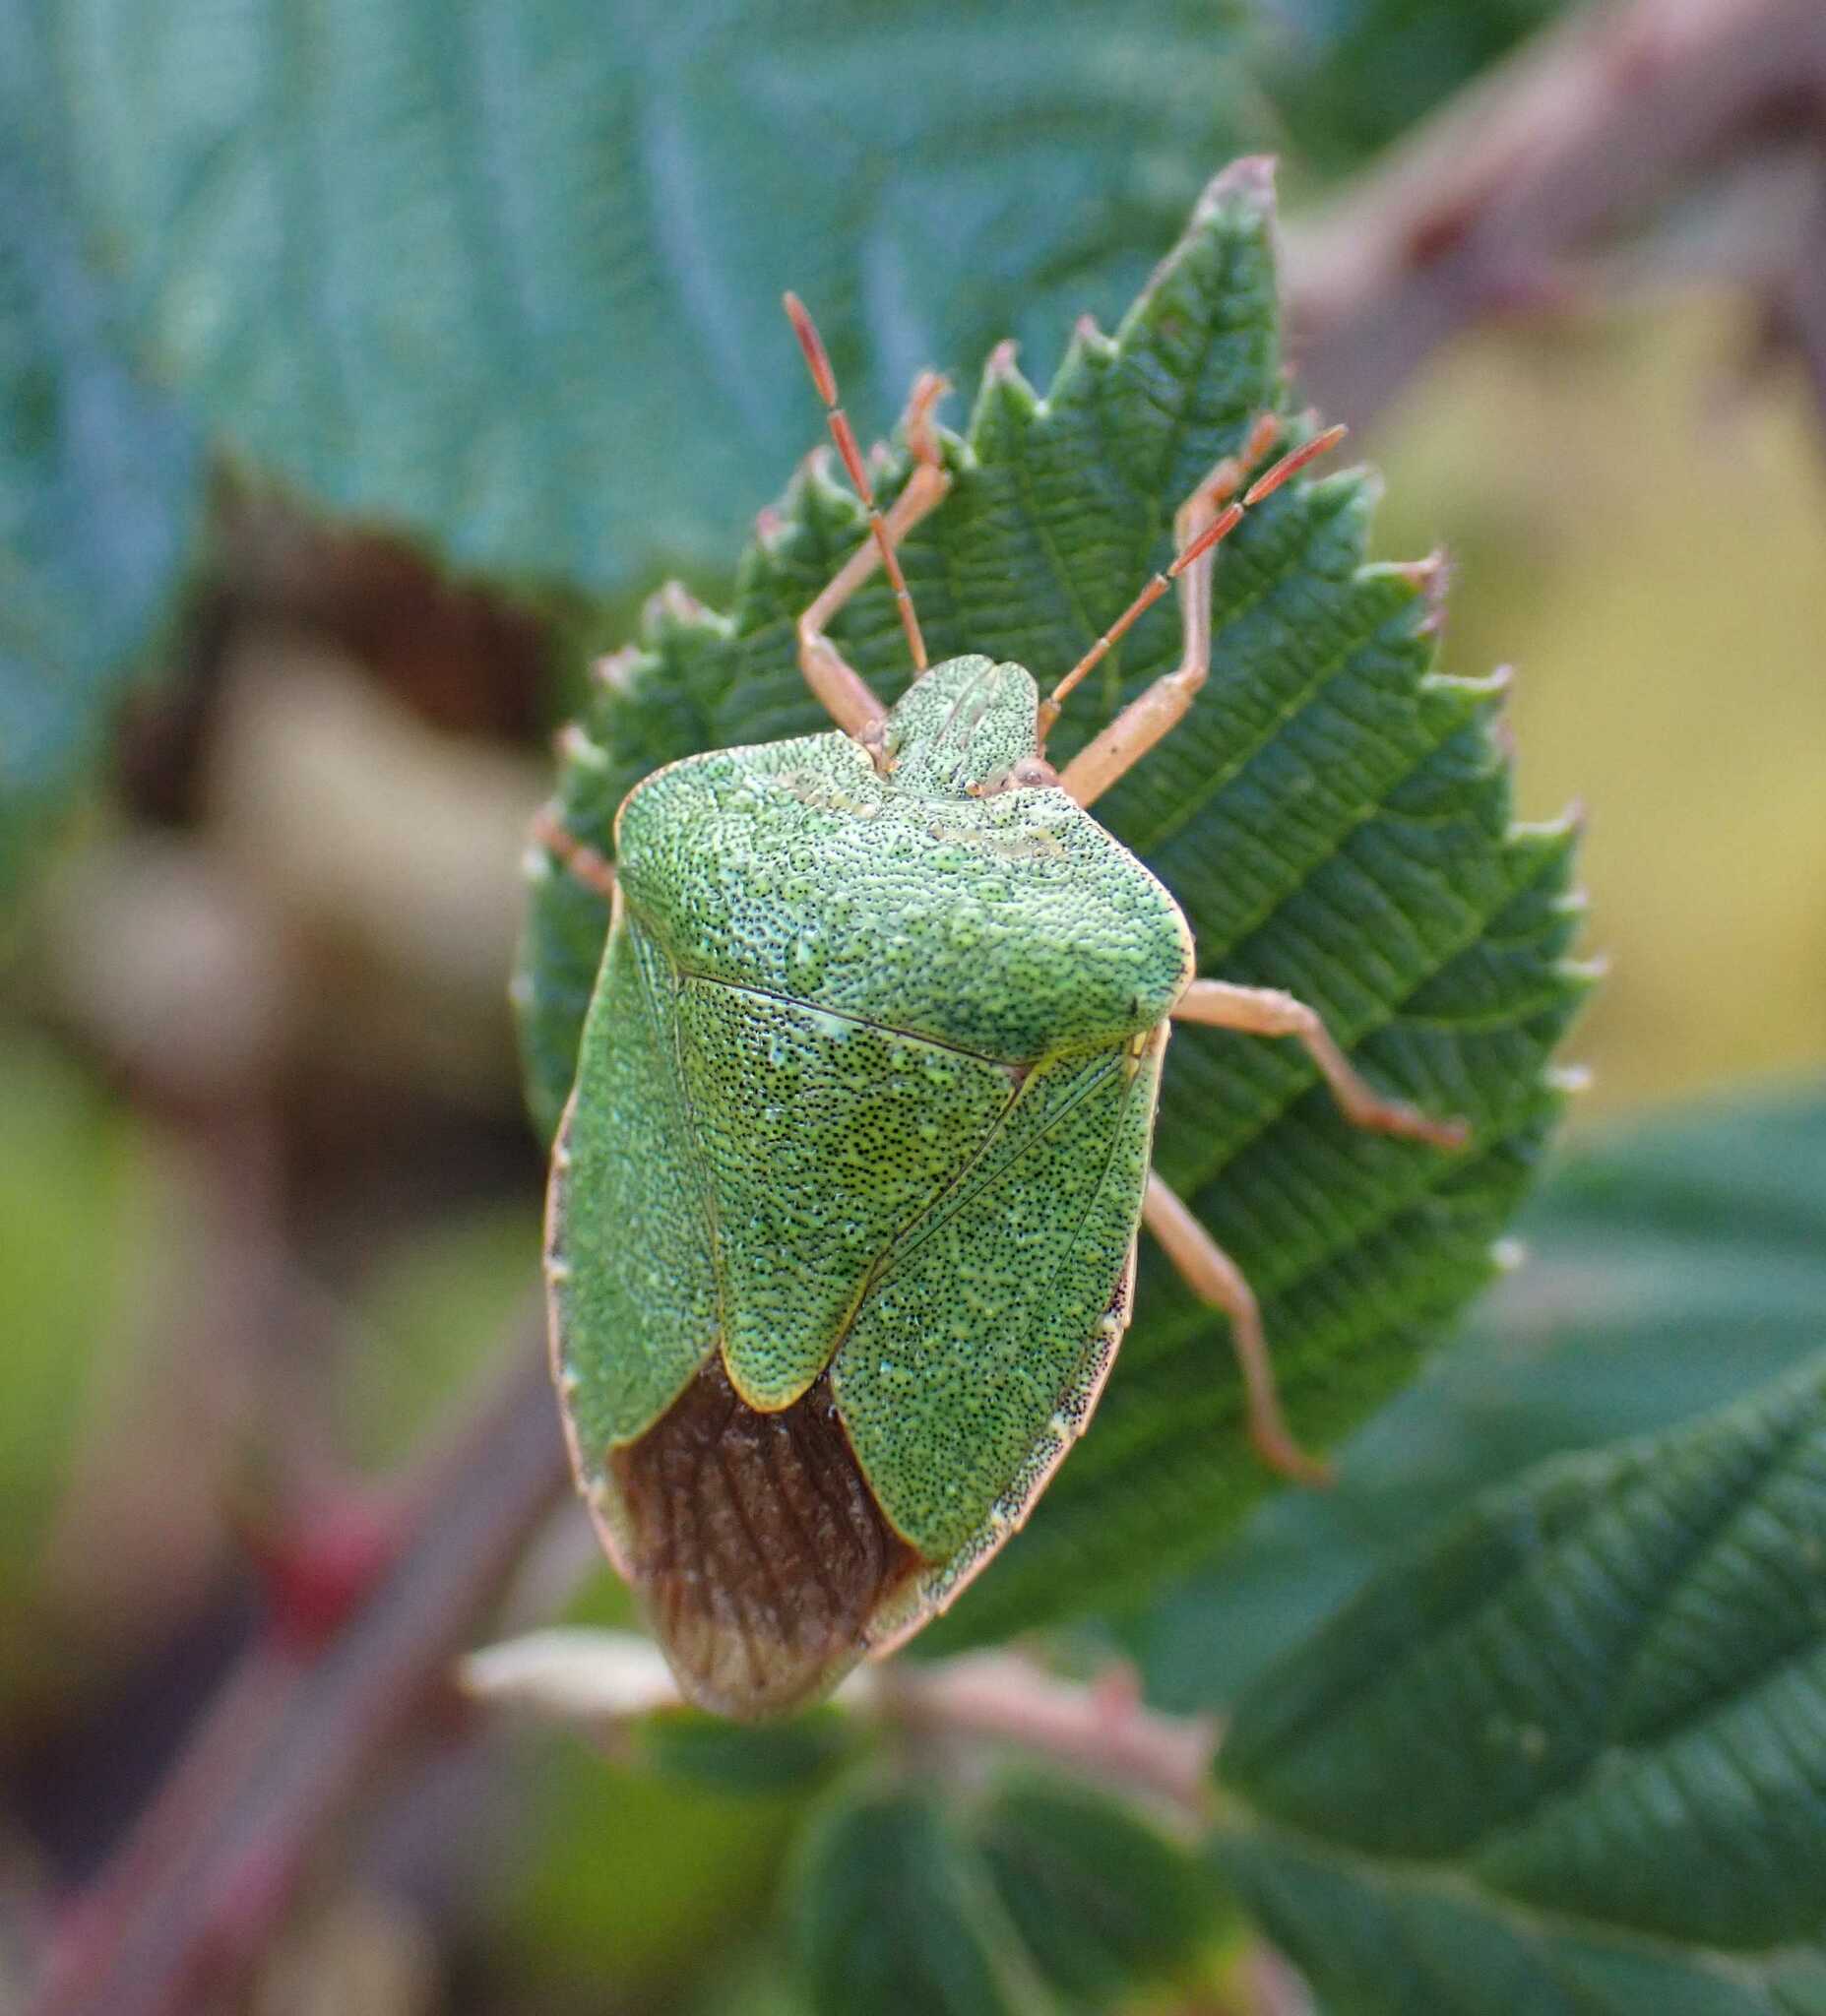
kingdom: Animalia
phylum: Arthropoda
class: Insecta
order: Hemiptera
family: Pentatomidae
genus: Palomena
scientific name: Palomena prasina
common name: Green shieldbug
